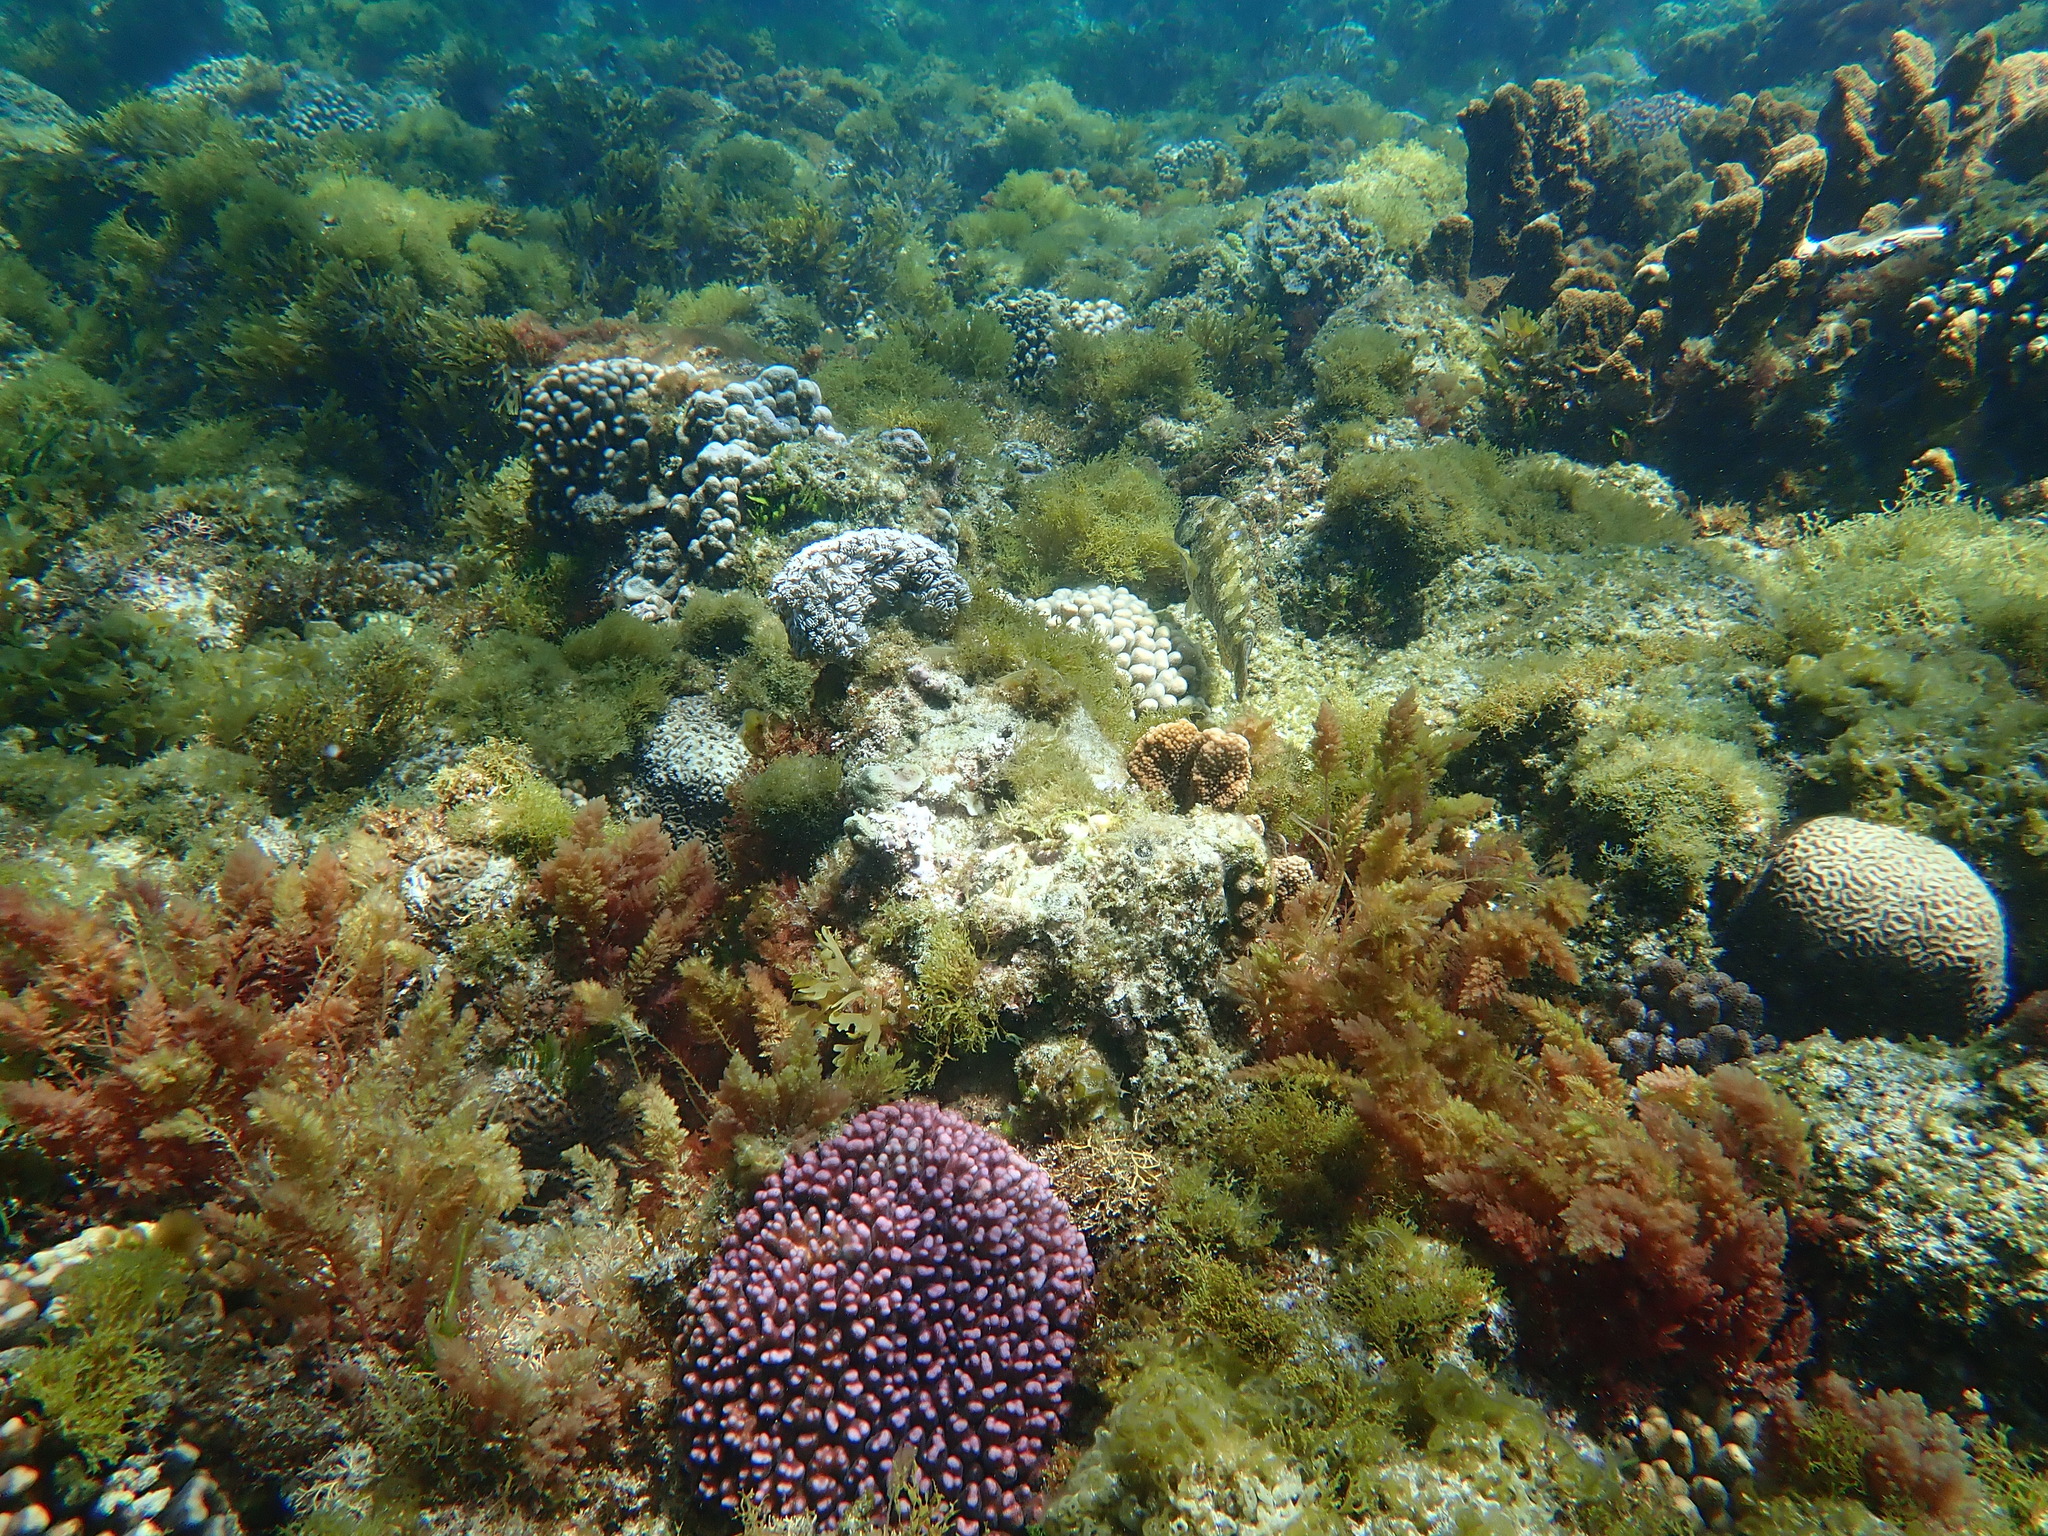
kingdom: Animalia
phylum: Chordata
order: Perciformes
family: Scaridae
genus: Leptoscarus
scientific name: Leptoscarus vaigiensis
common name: Marbled parrotfish
